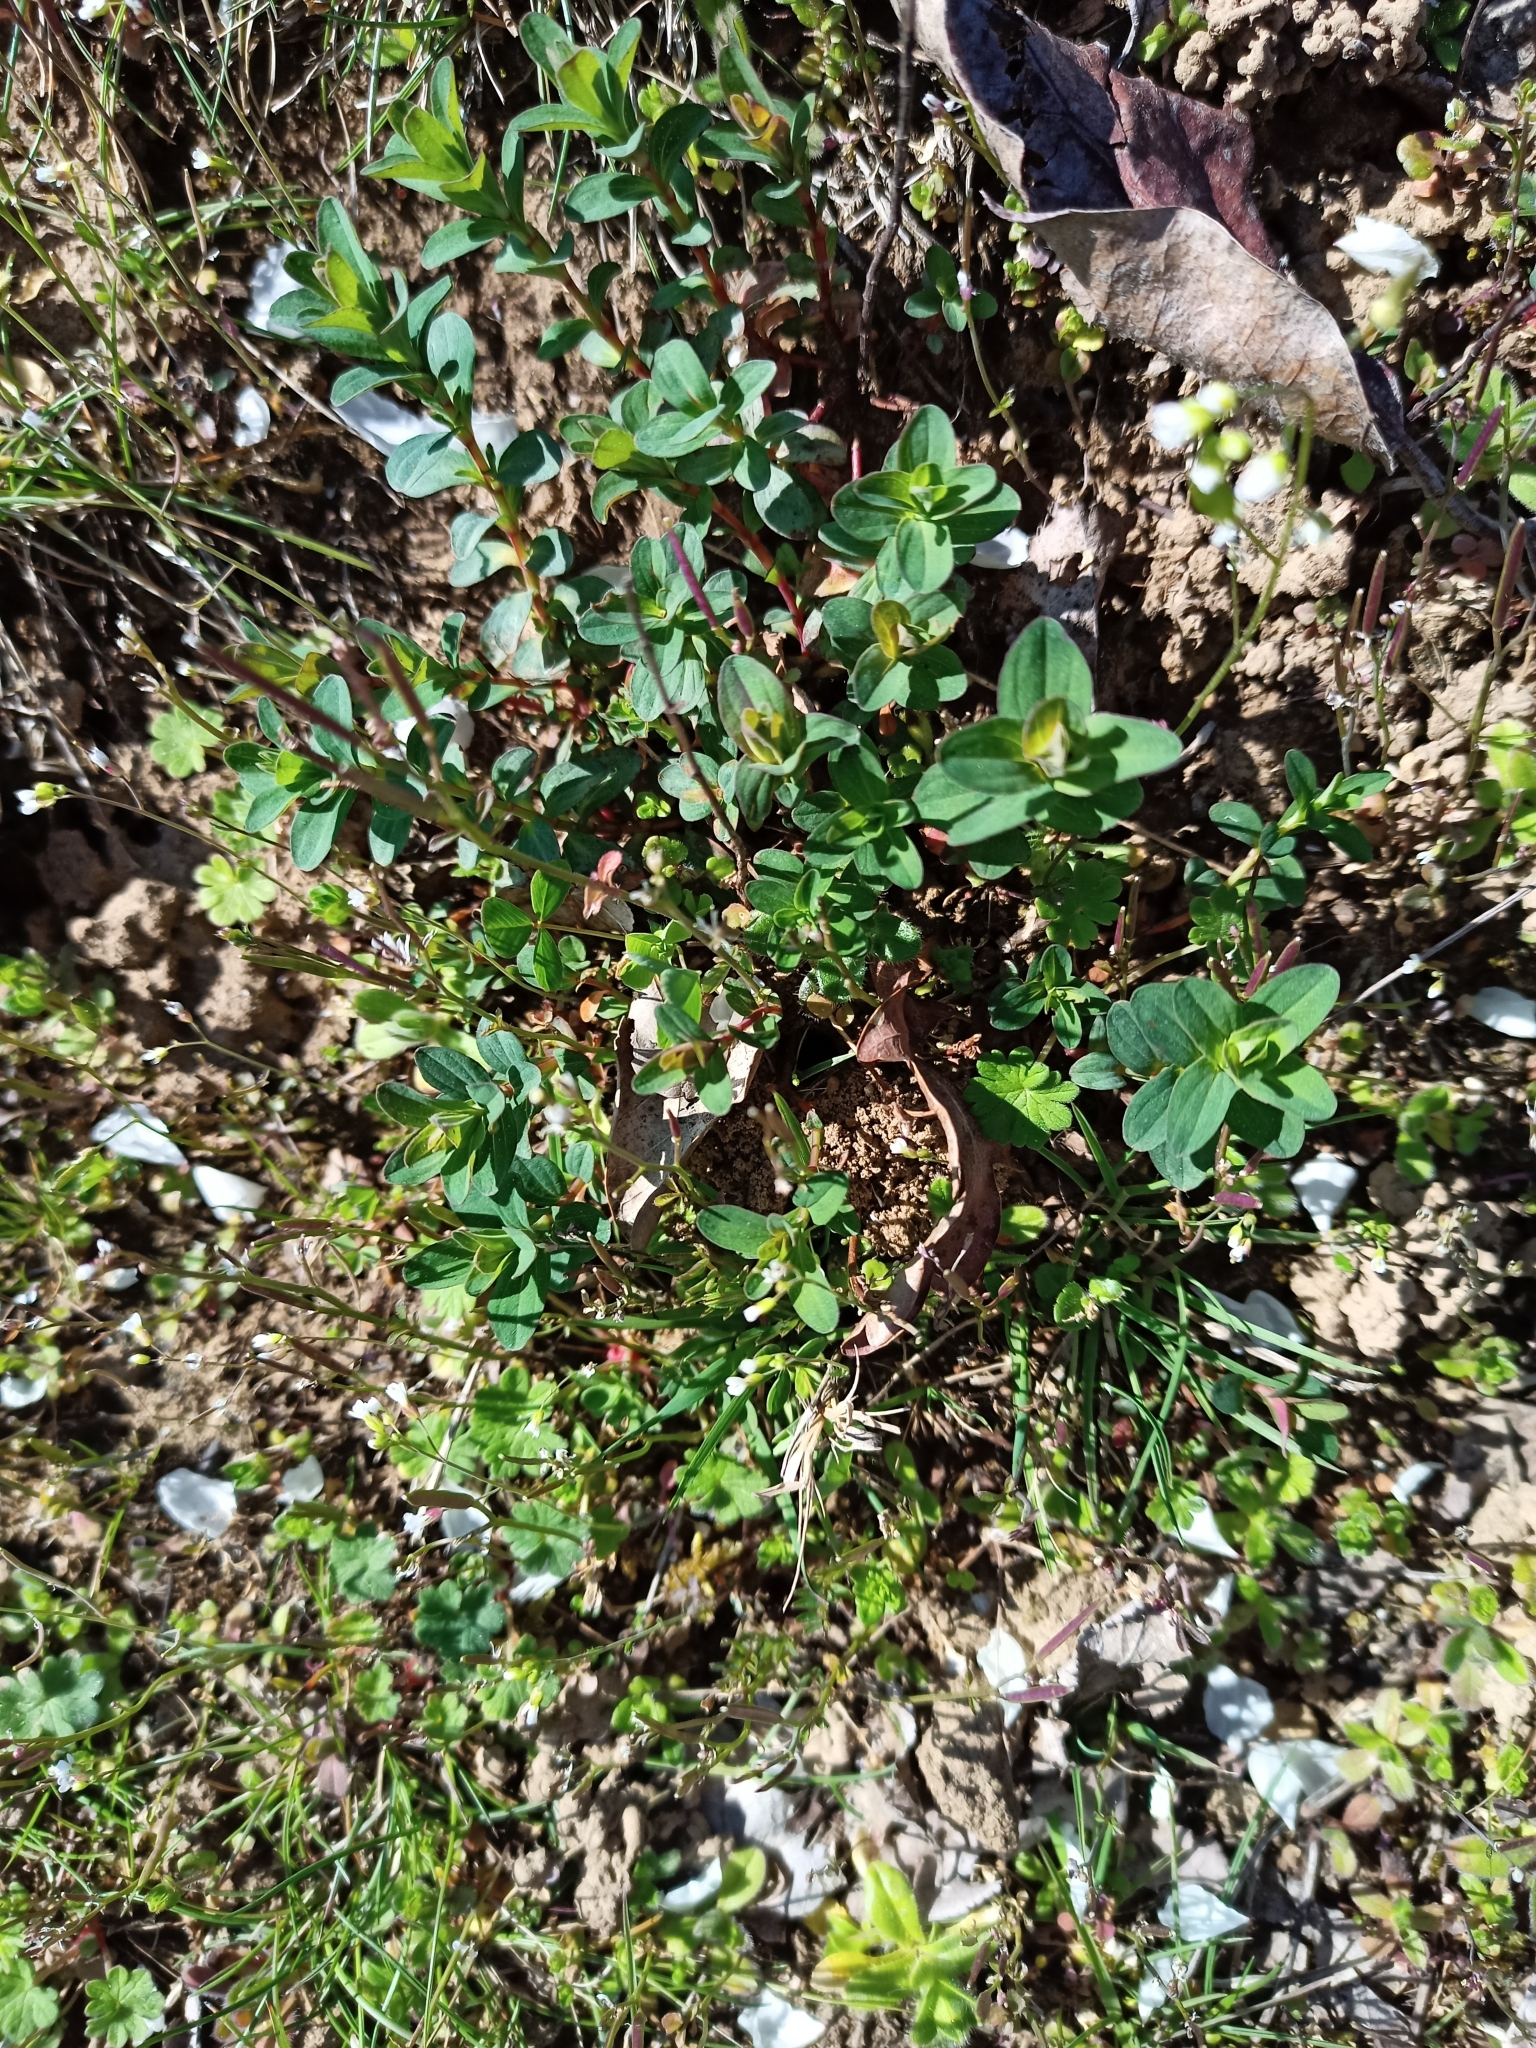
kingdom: Plantae
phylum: Tracheophyta
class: Magnoliopsida
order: Malpighiales
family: Hypericaceae
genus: Hypericum
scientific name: Hypericum perforatum
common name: Common st. johnswort
